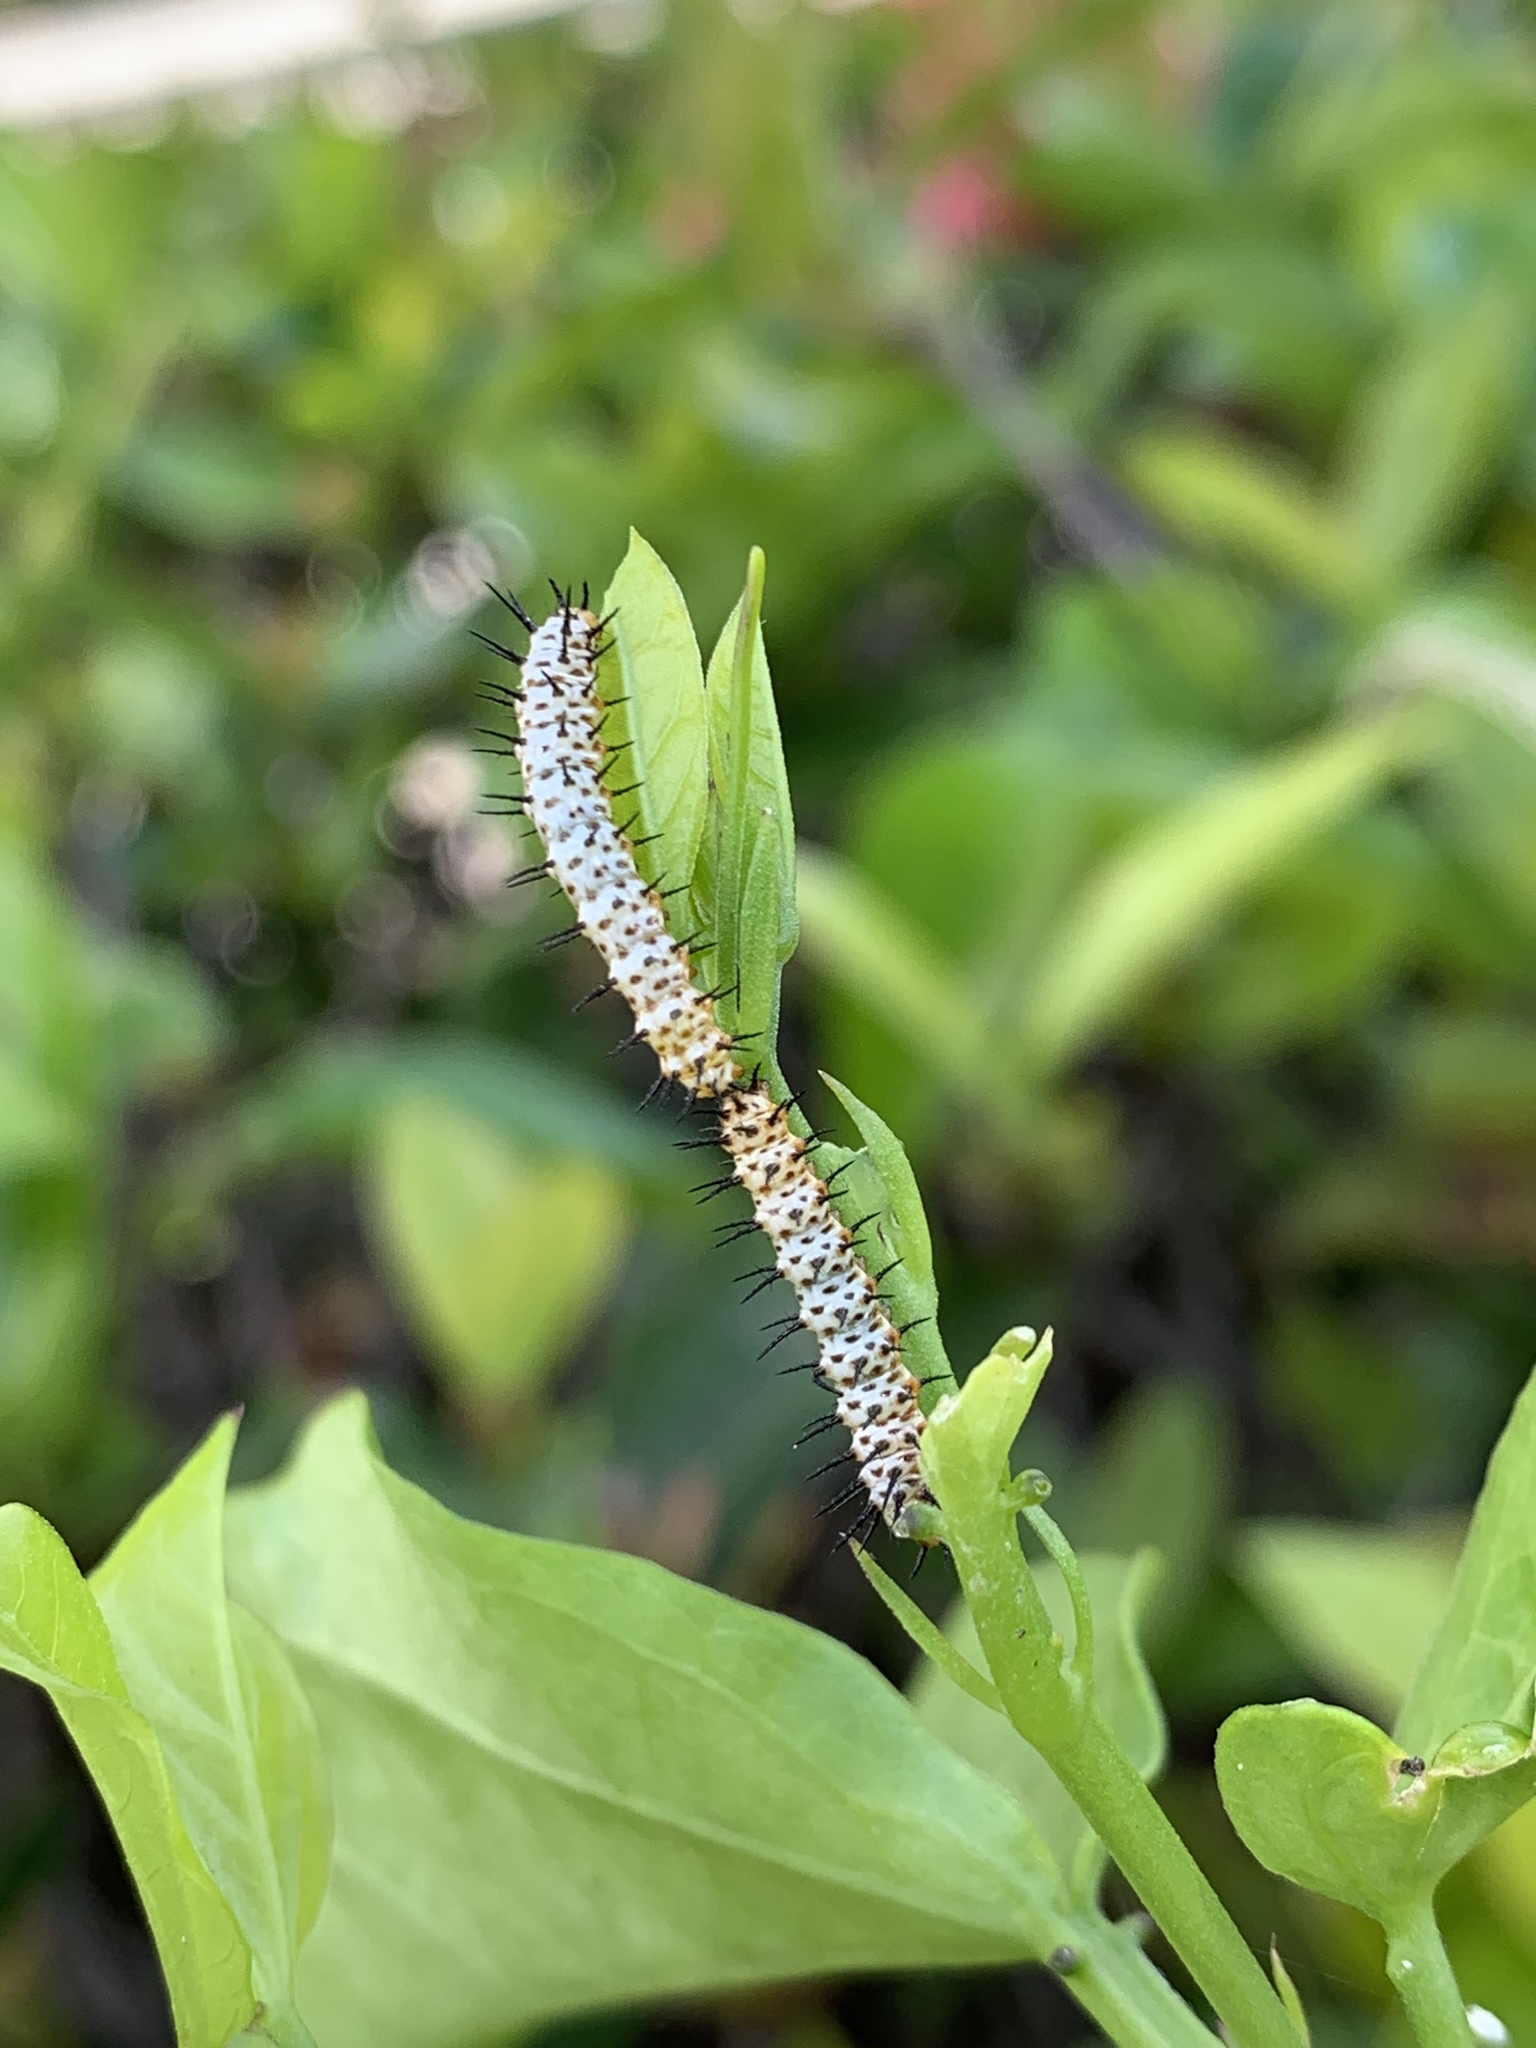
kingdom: Animalia
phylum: Arthropoda
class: Insecta
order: Lepidoptera
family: Nymphalidae
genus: Heliconius
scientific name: Heliconius charithonia
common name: Zebra long wing
